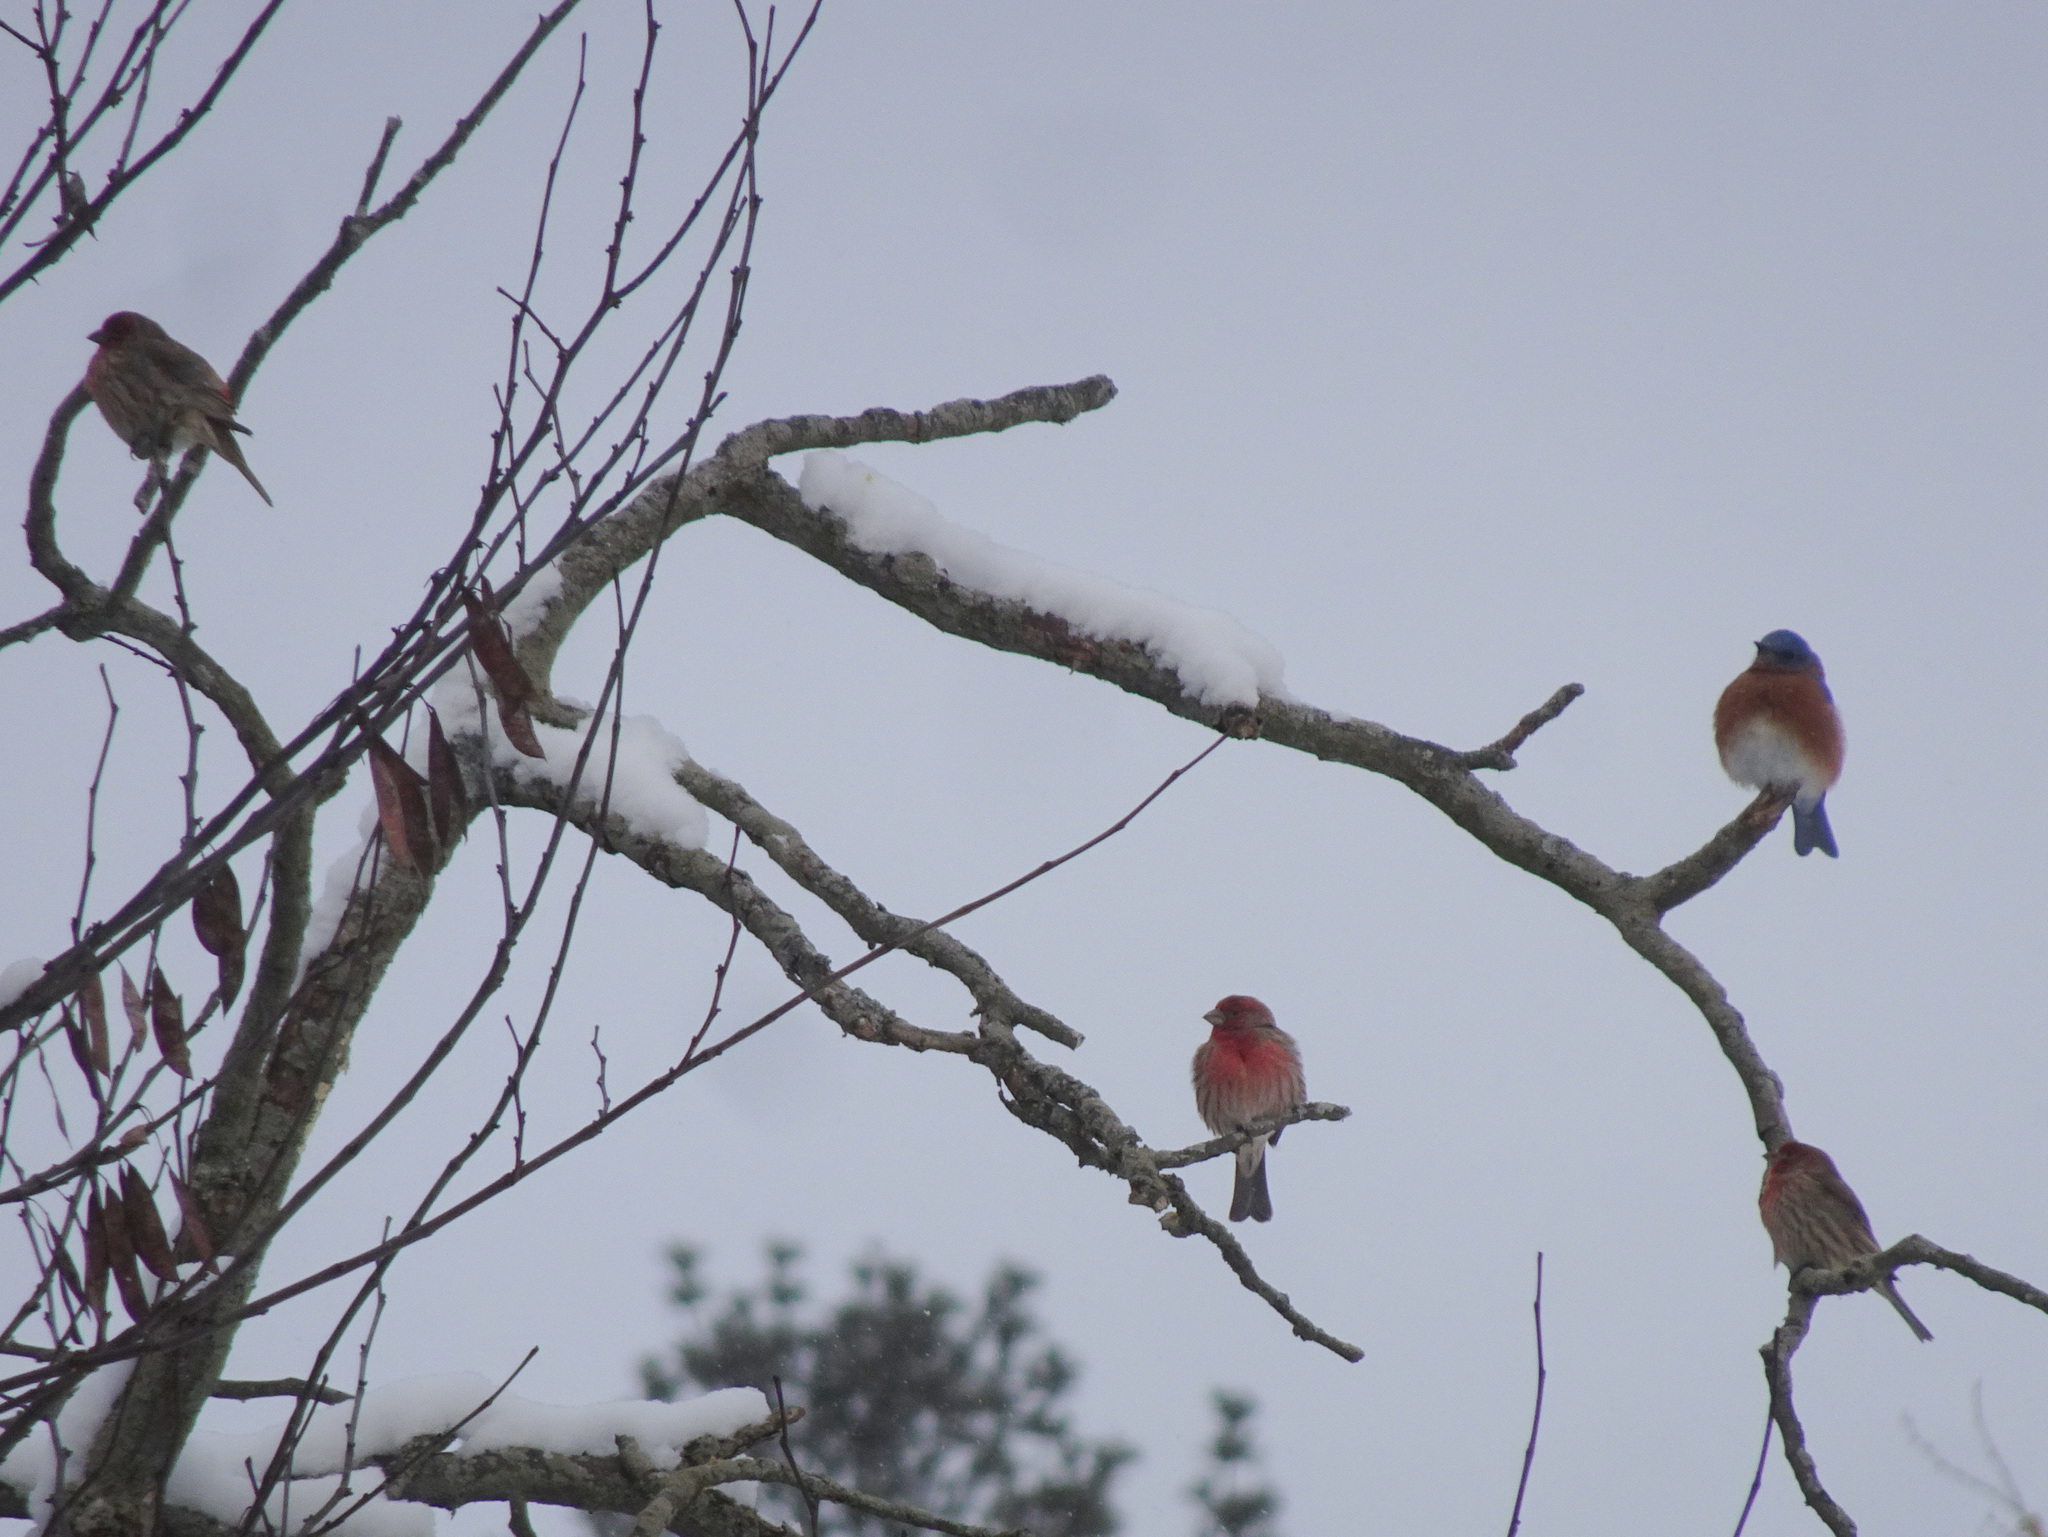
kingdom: Animalia
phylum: Chordata
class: Aves
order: Passeriformes
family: Fringillidae
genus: Haemorhous
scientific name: Haemorhous mexicanus
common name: House finch
